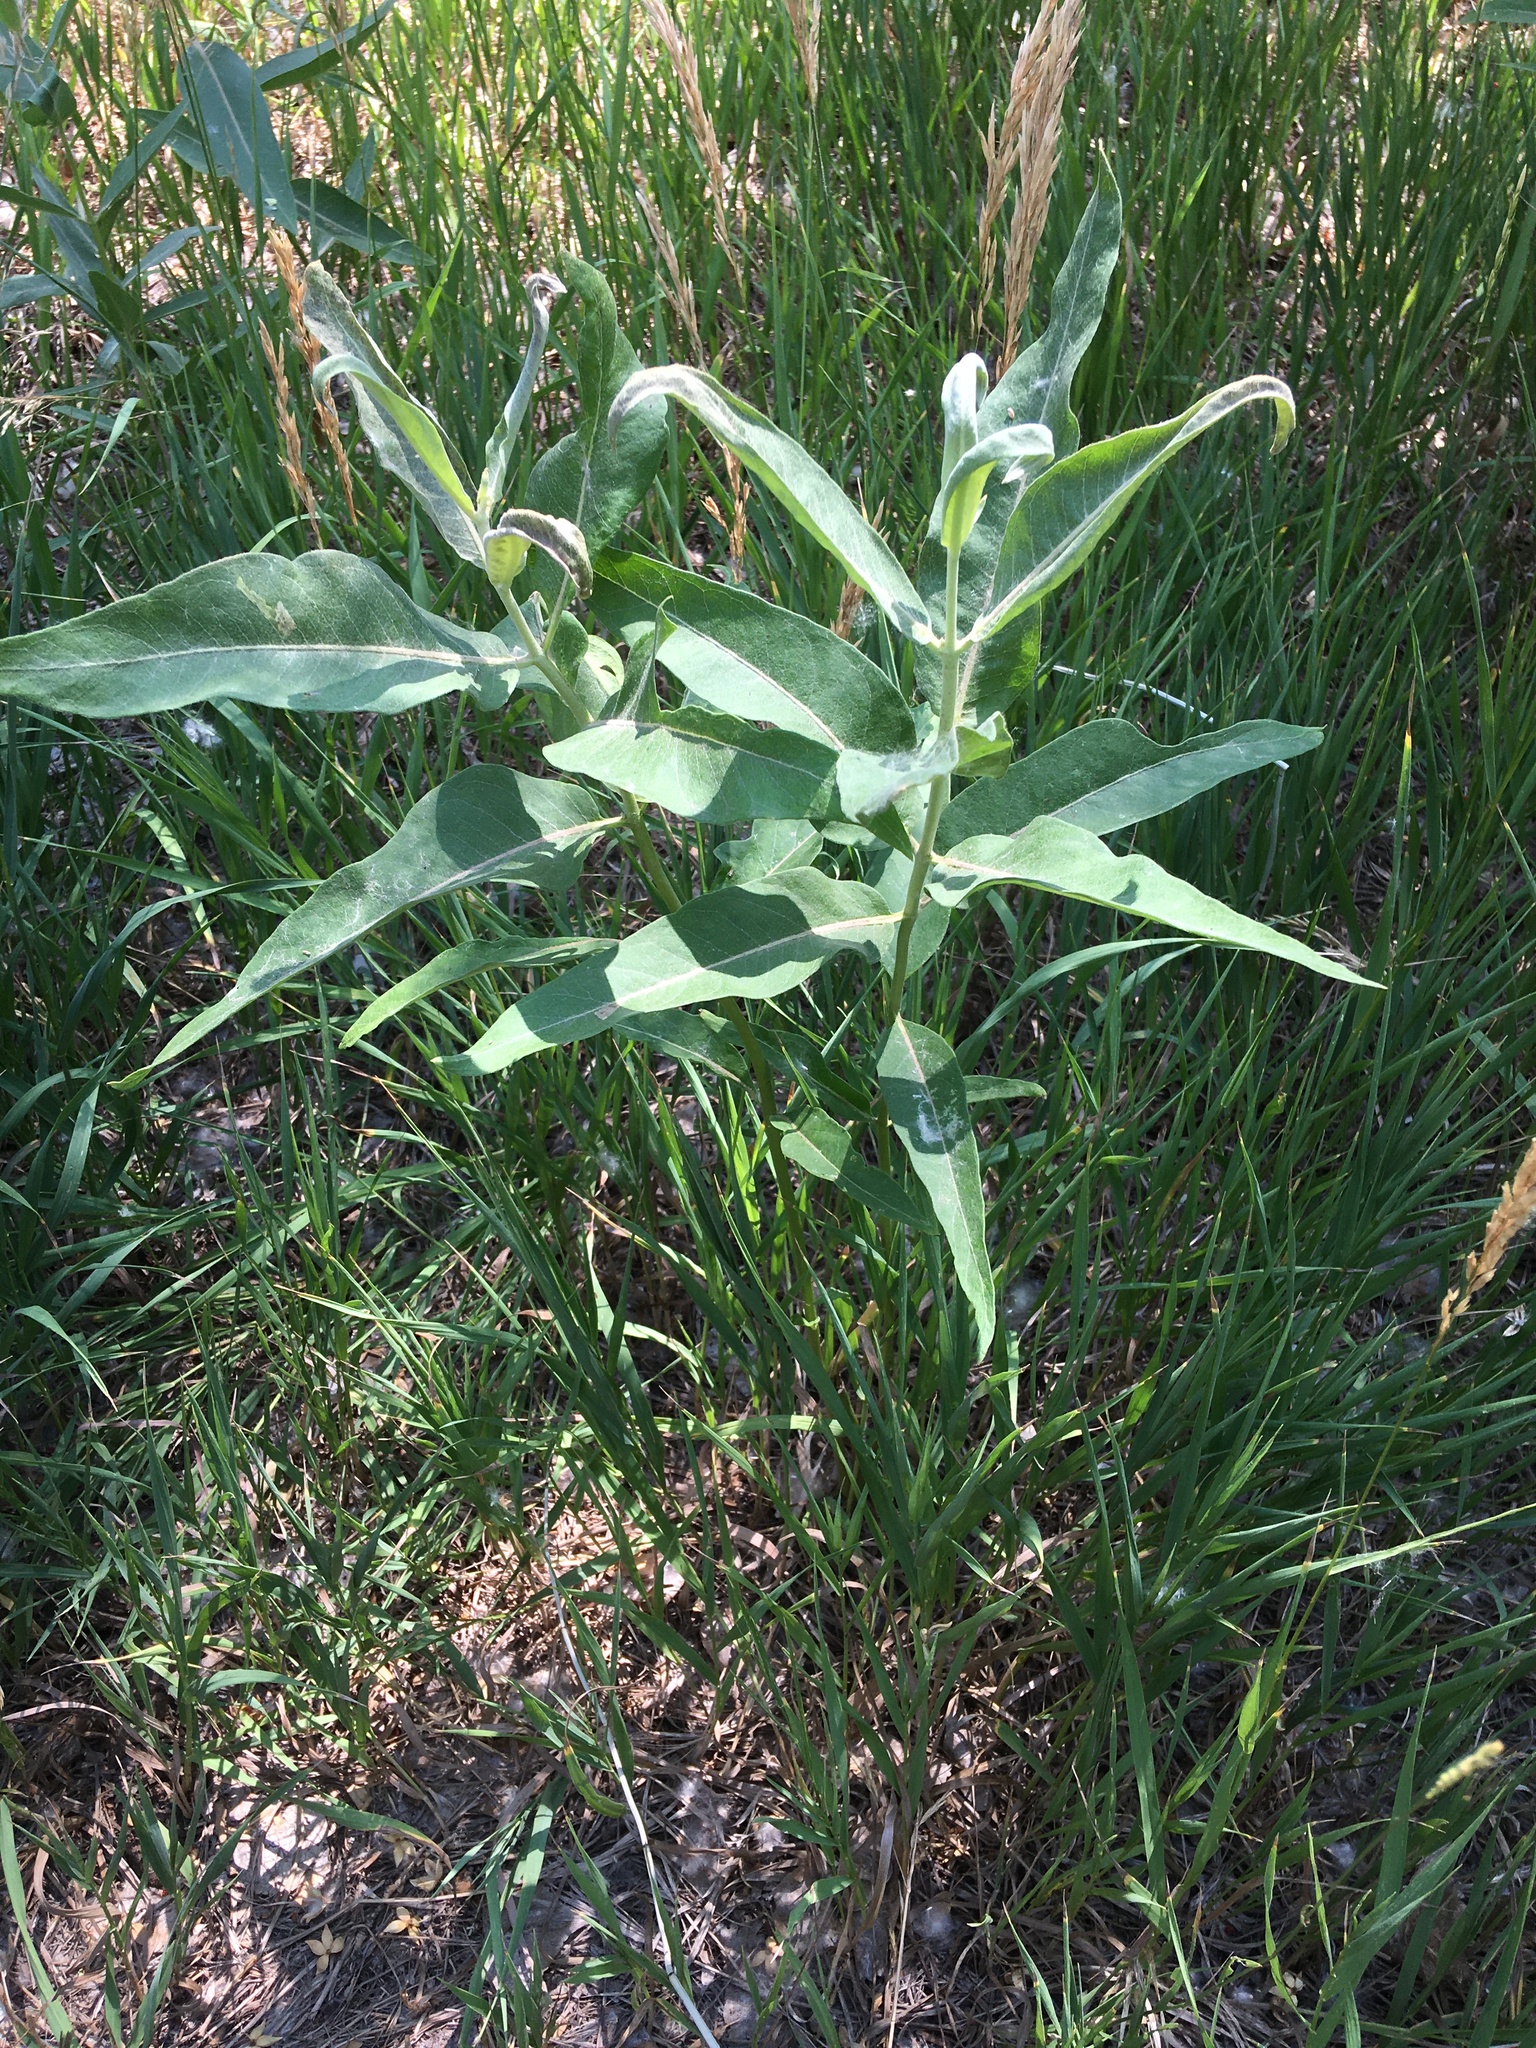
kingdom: Plantae
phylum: Tracheophyta
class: Magnoliopsida
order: Gentianales
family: Apocynaceae
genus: Asclepias
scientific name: Asclepias speciosa
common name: Showy milkweed
